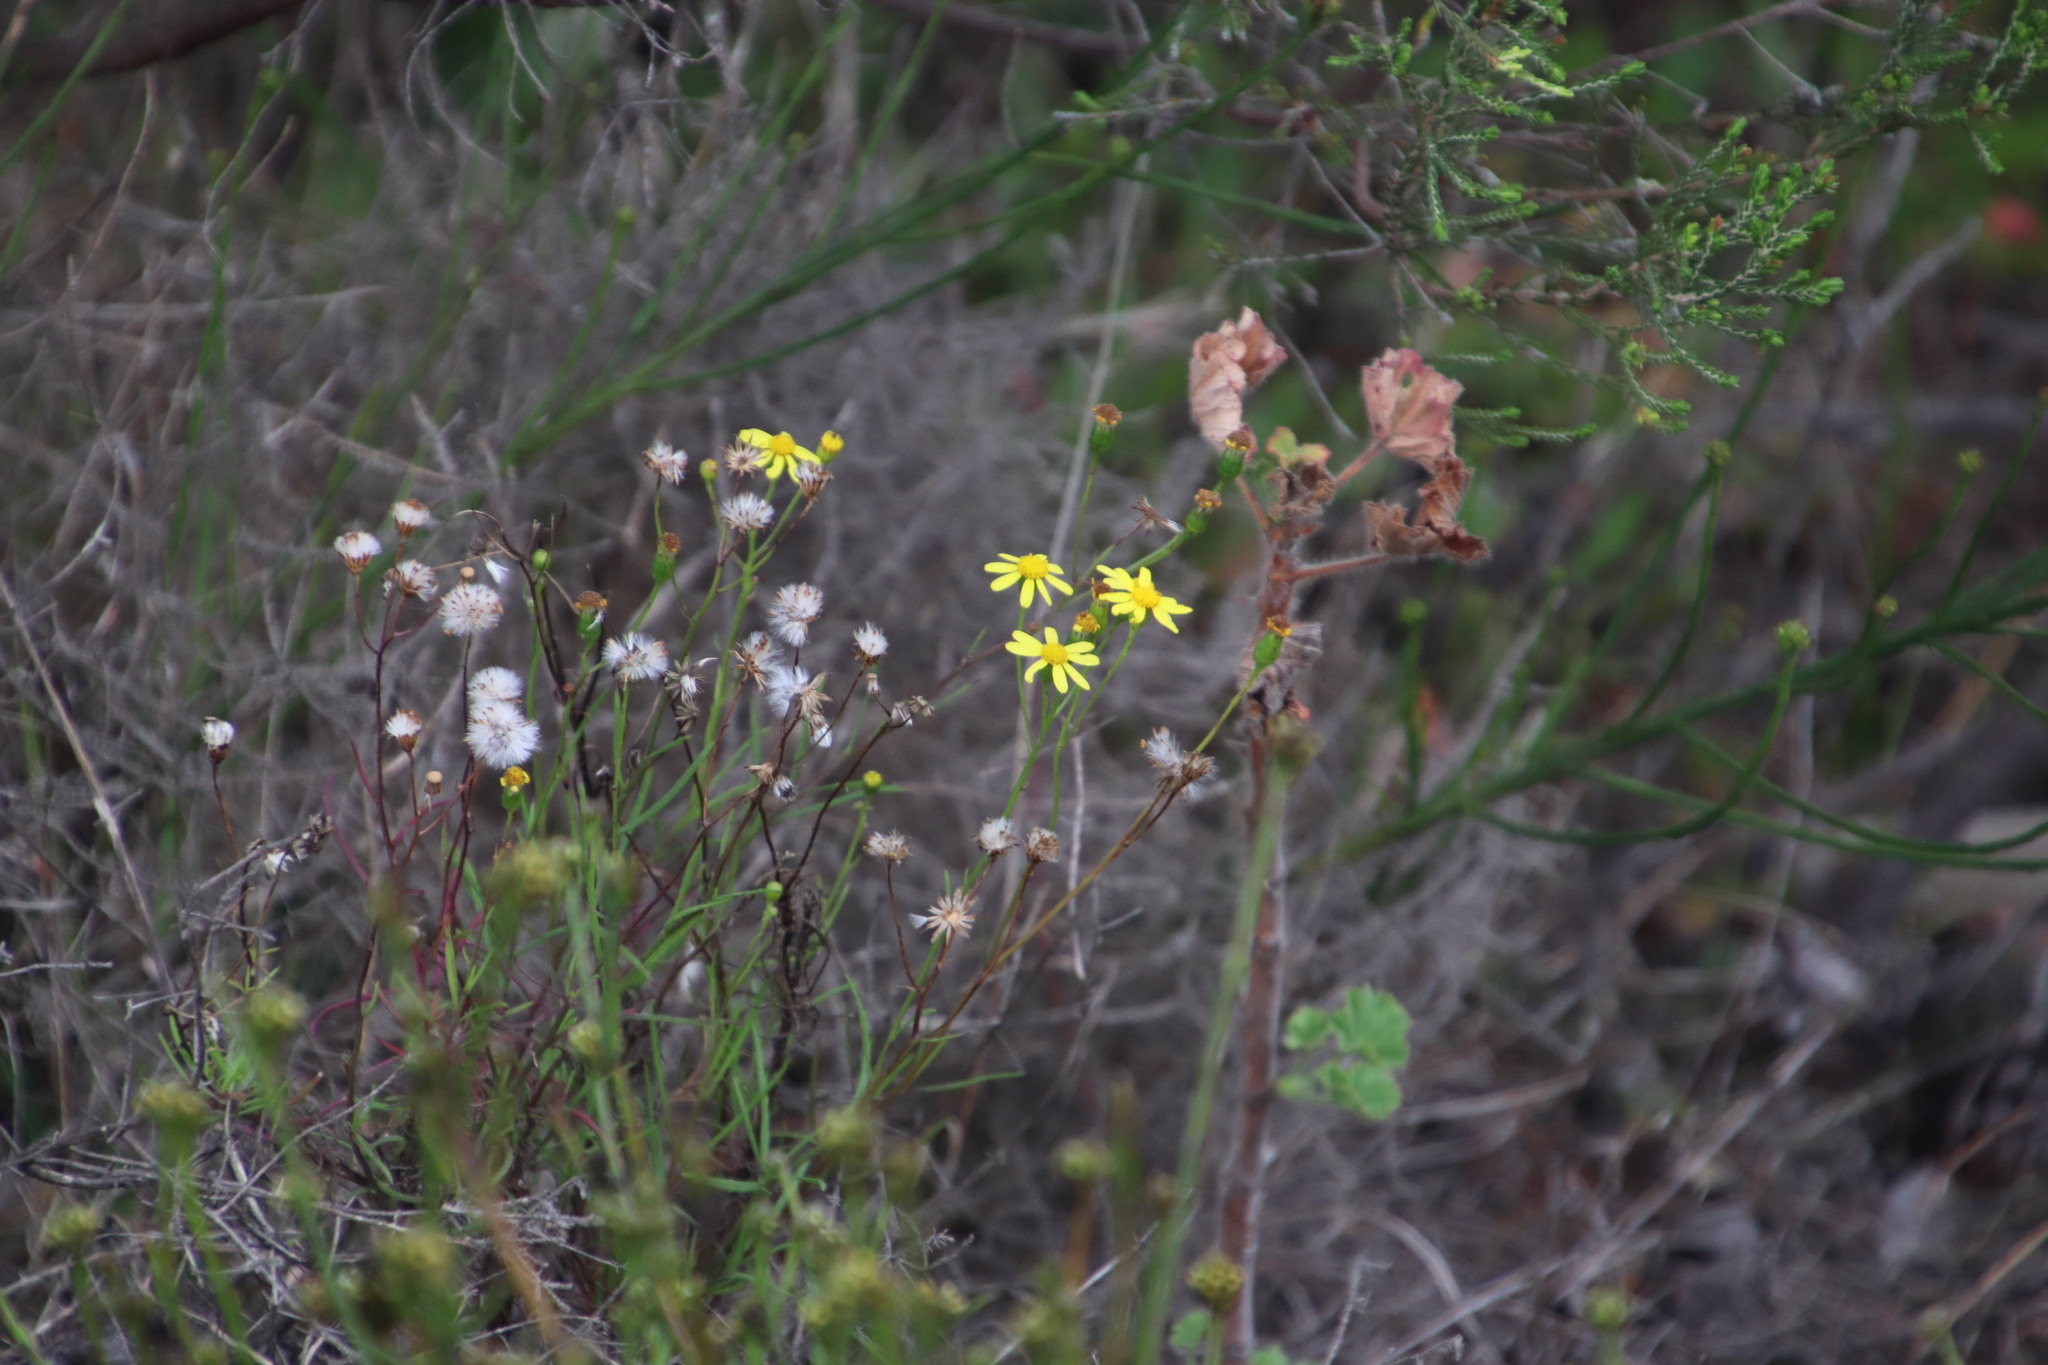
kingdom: Plantae
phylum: Tracheophyta
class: Magnoliopsida
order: Asterales
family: Asteraceae
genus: Senecio
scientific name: Senecio burchellii
